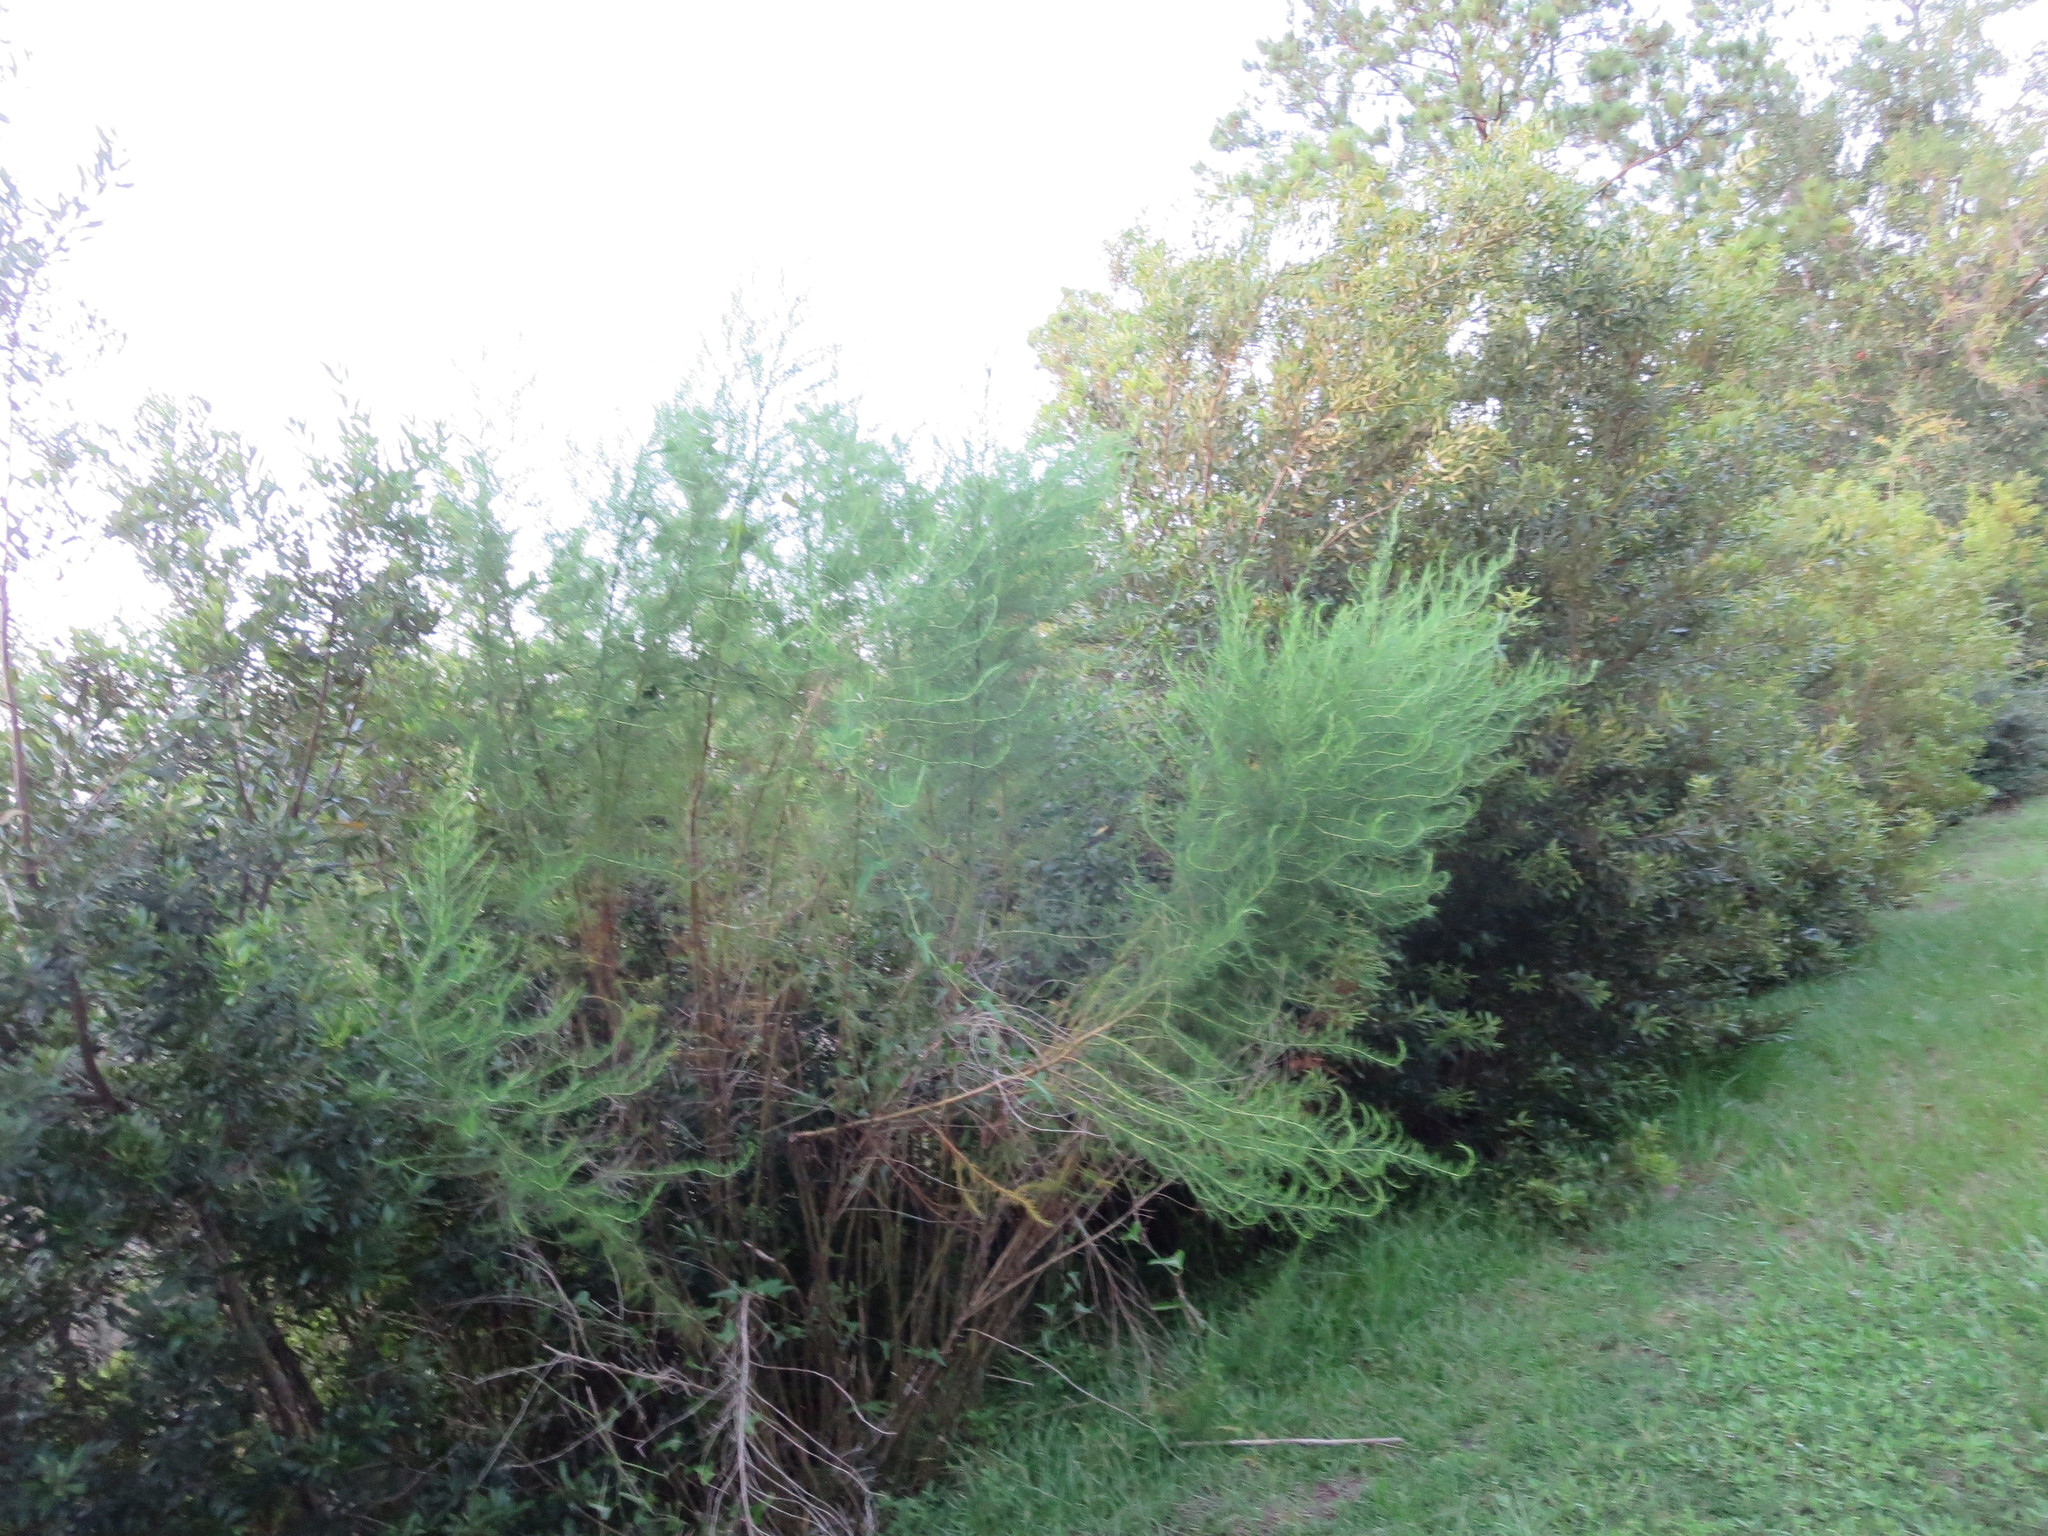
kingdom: Plantae
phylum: Tracheophyta
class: Magnoliopsida
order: Asterales
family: Asteraceae
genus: Eupatorium
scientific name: Eupatorium capillifolium
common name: Dog-fennel
